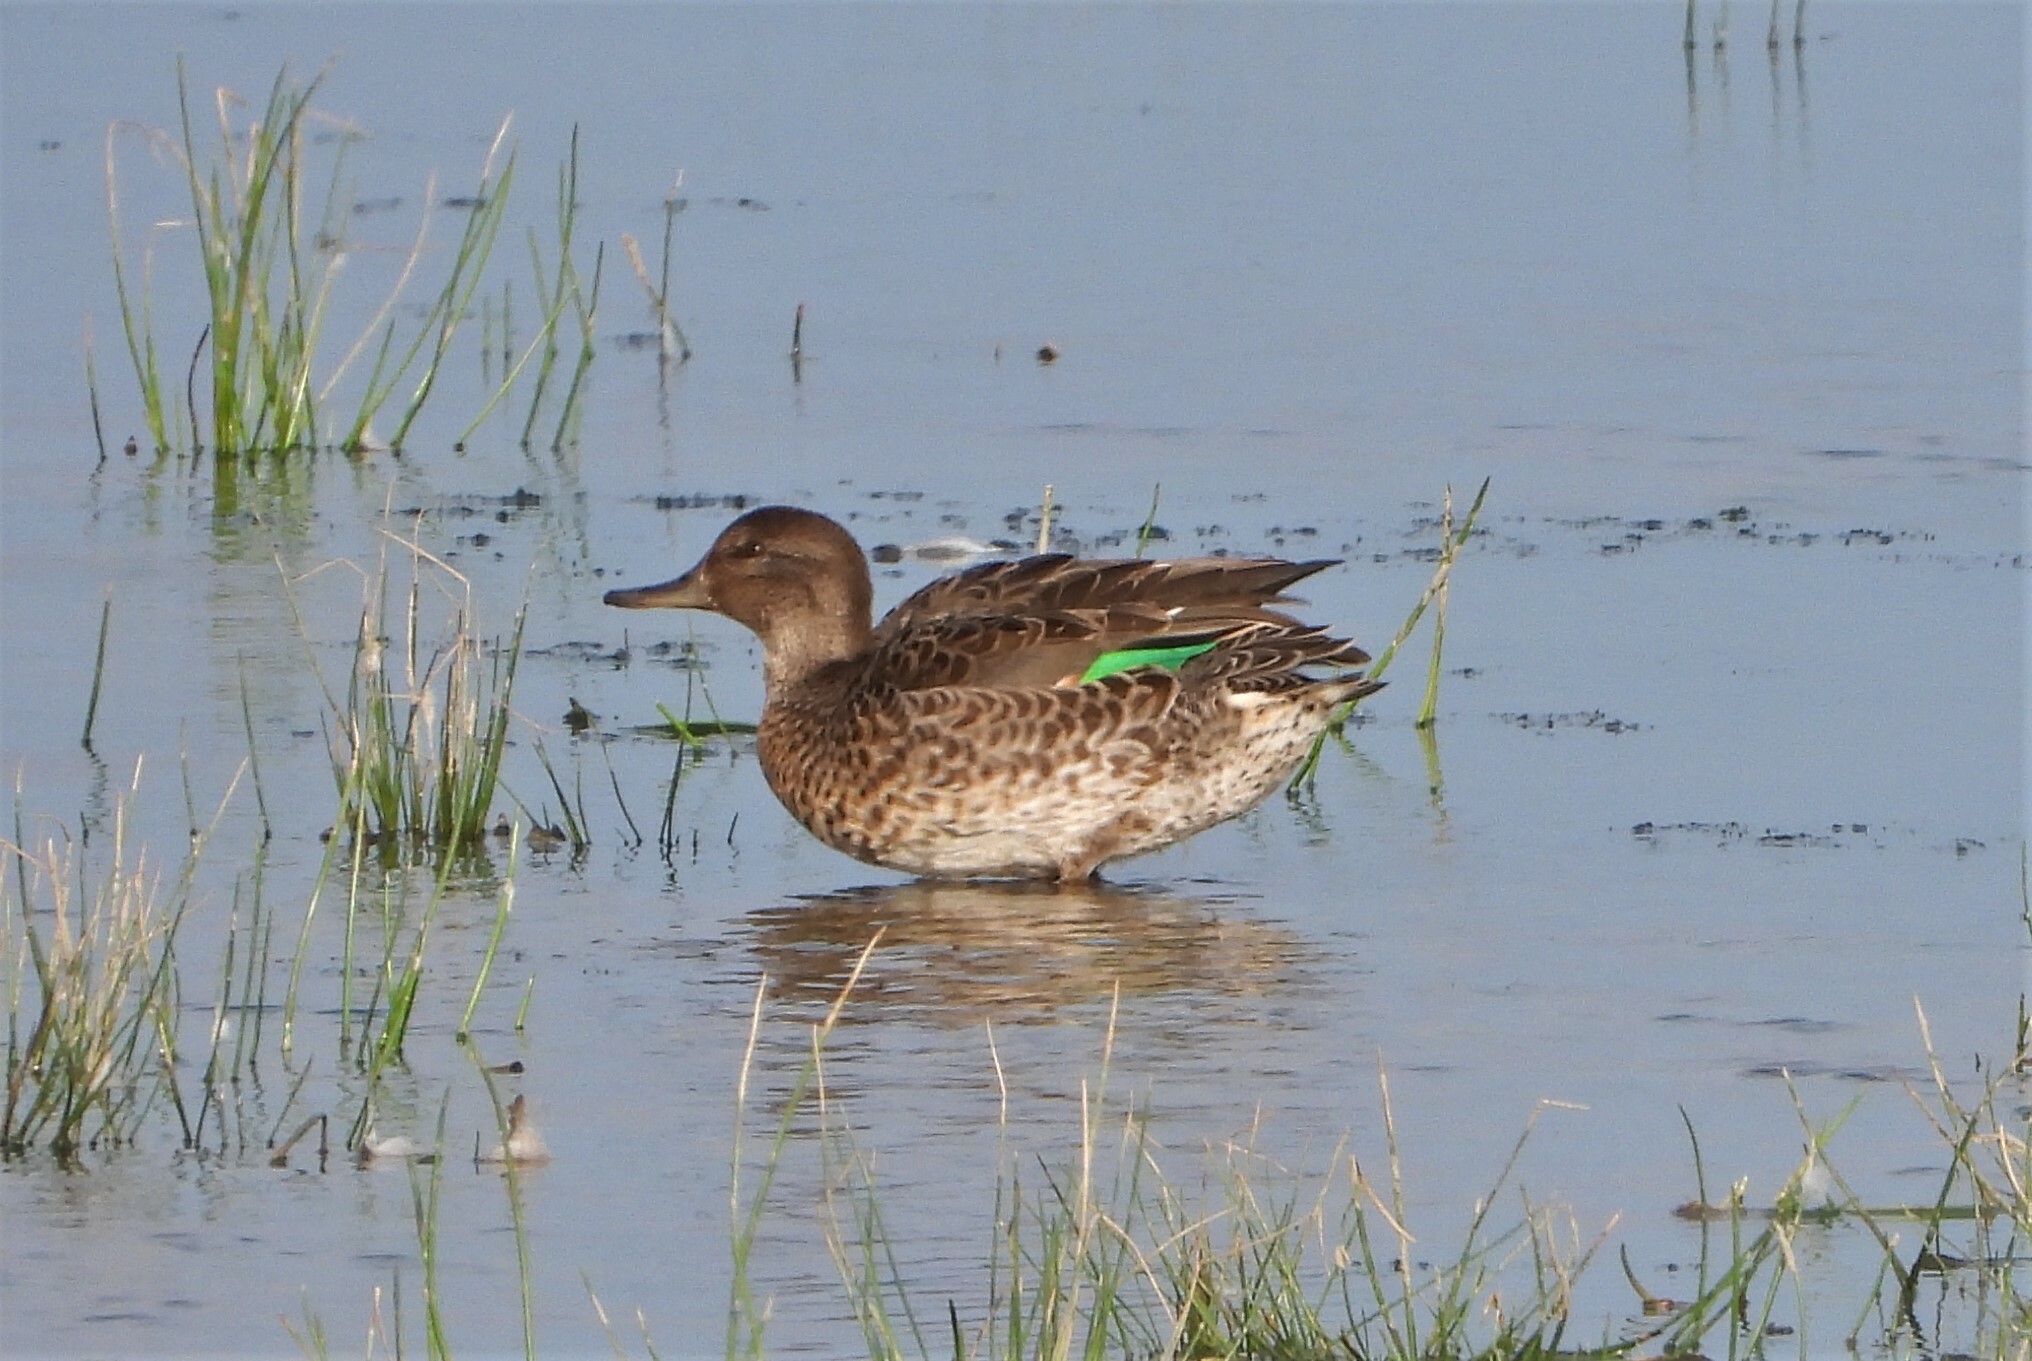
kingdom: Animalia
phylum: Chordata
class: Aves
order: Anseriformes
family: Anatidae
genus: Anas
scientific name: Anas crecca
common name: Eurasian teal
